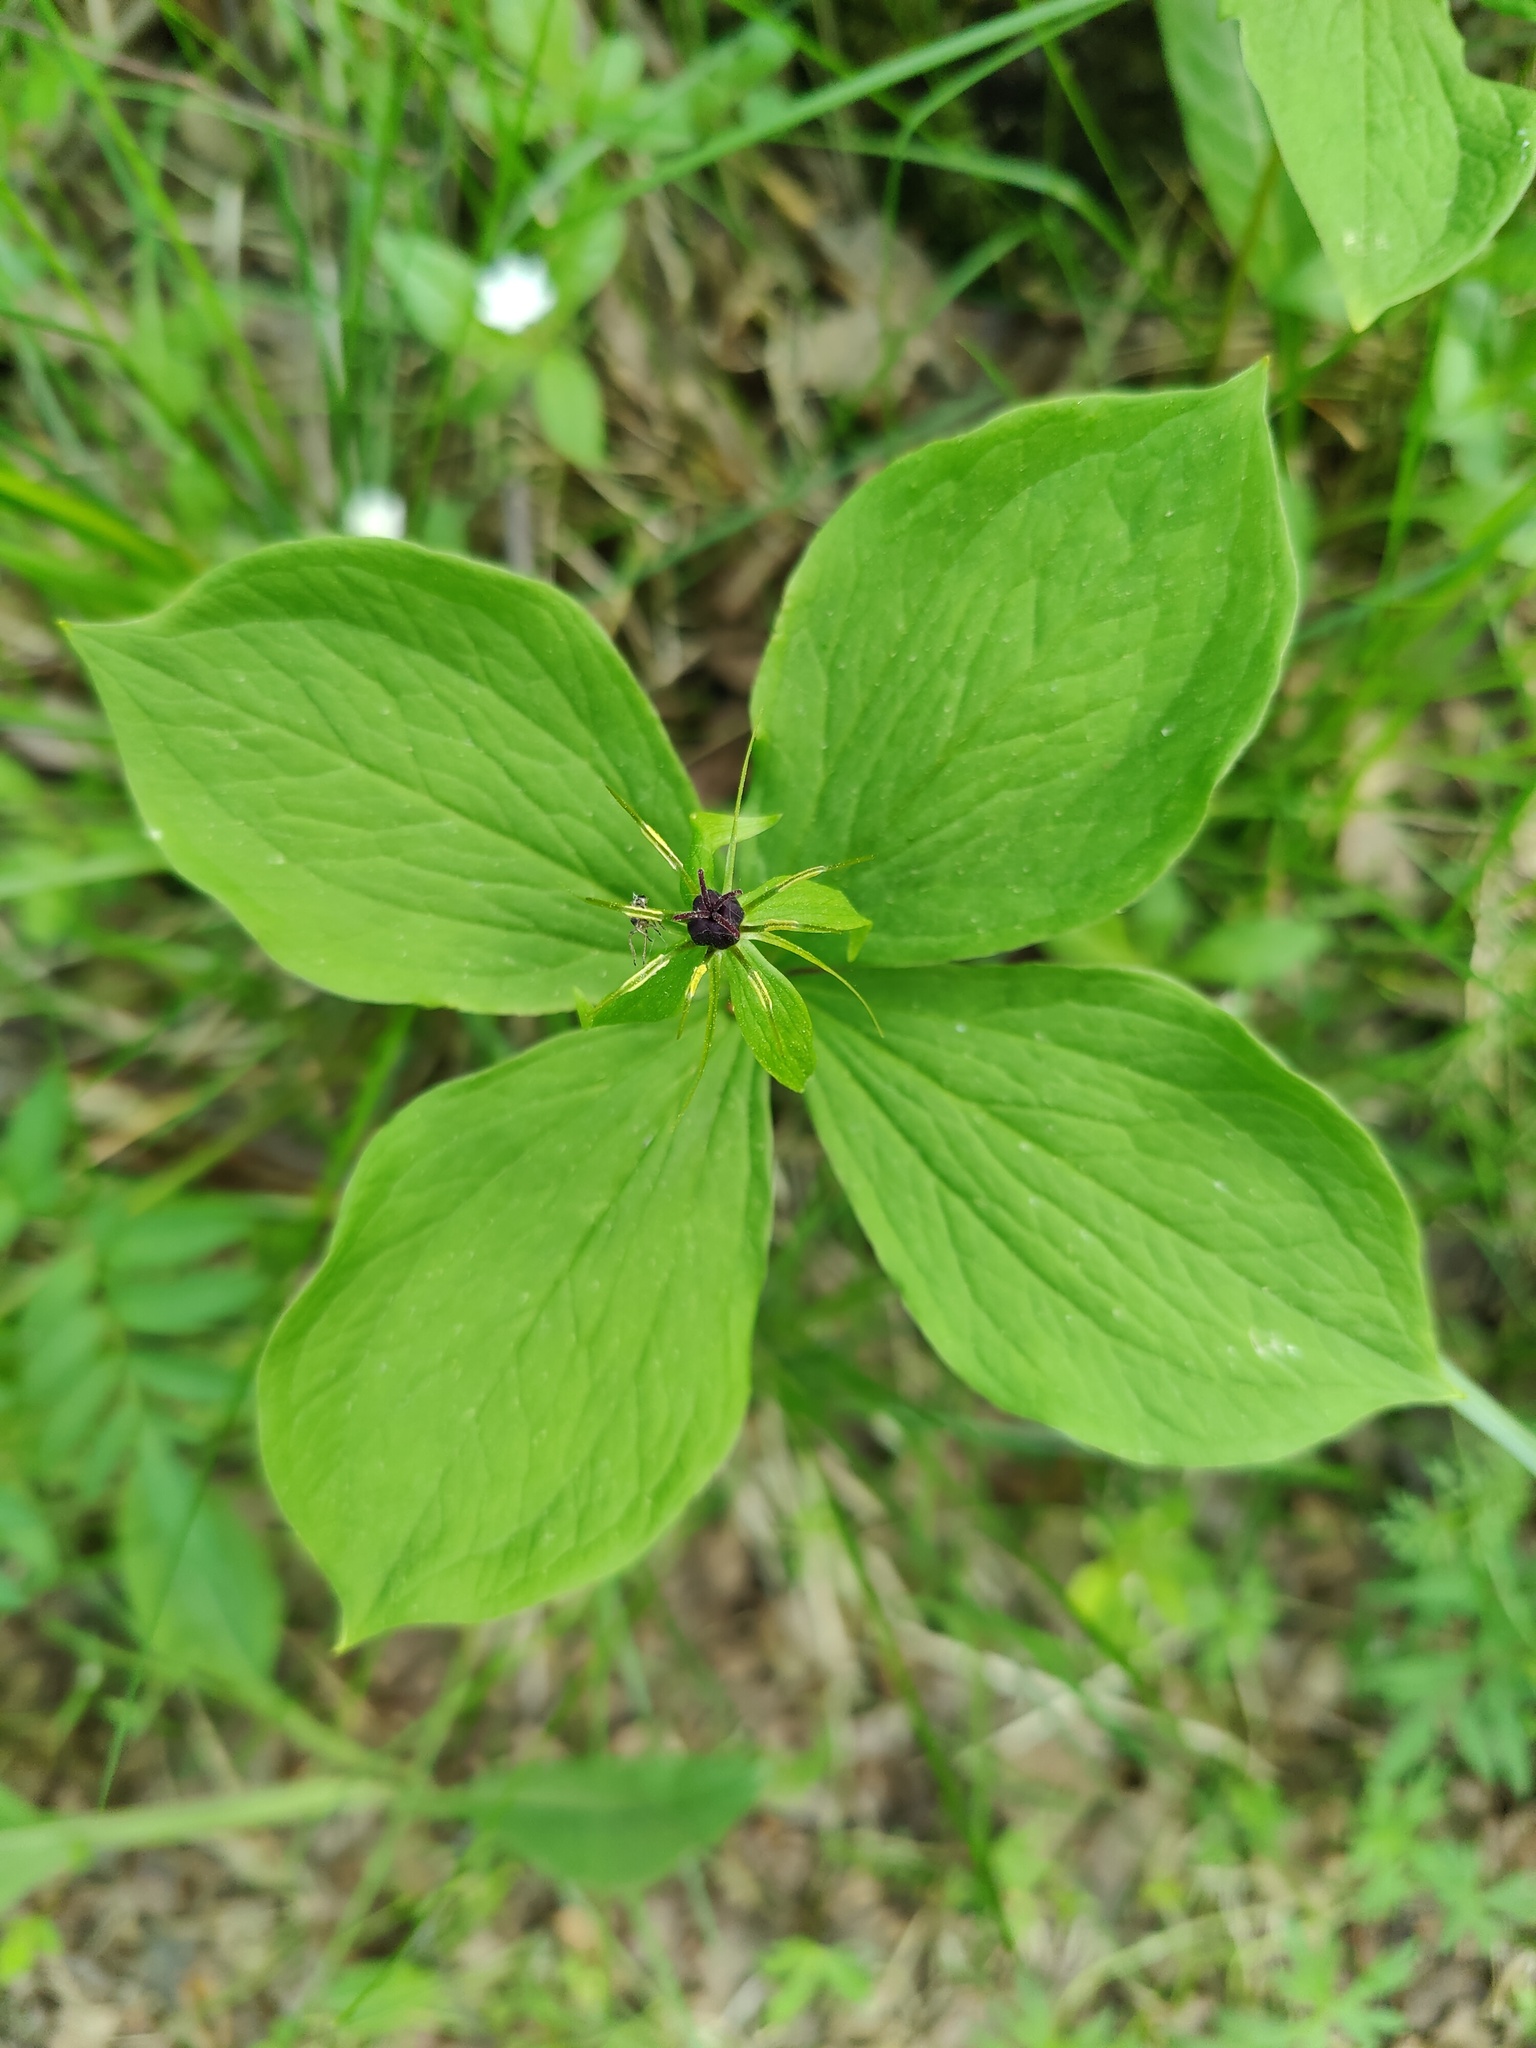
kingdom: Plantae
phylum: Tracheophyta
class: Liliopsida
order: Liliales
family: Melanthiaceae
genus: Paris
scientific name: Paris quadrifolia
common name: Herb-paris
